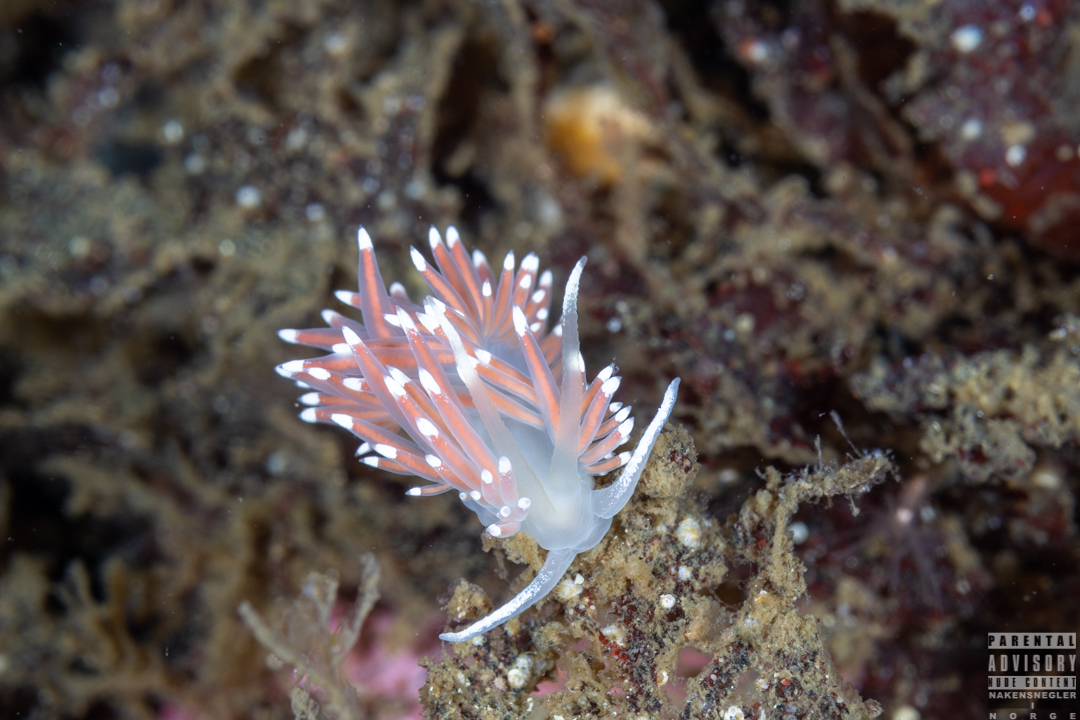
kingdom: Animalia
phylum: Mollusca
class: Gastropoda
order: Nudibranchia
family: Coryphellidae
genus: Coryphella
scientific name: Coryphella nobilis
